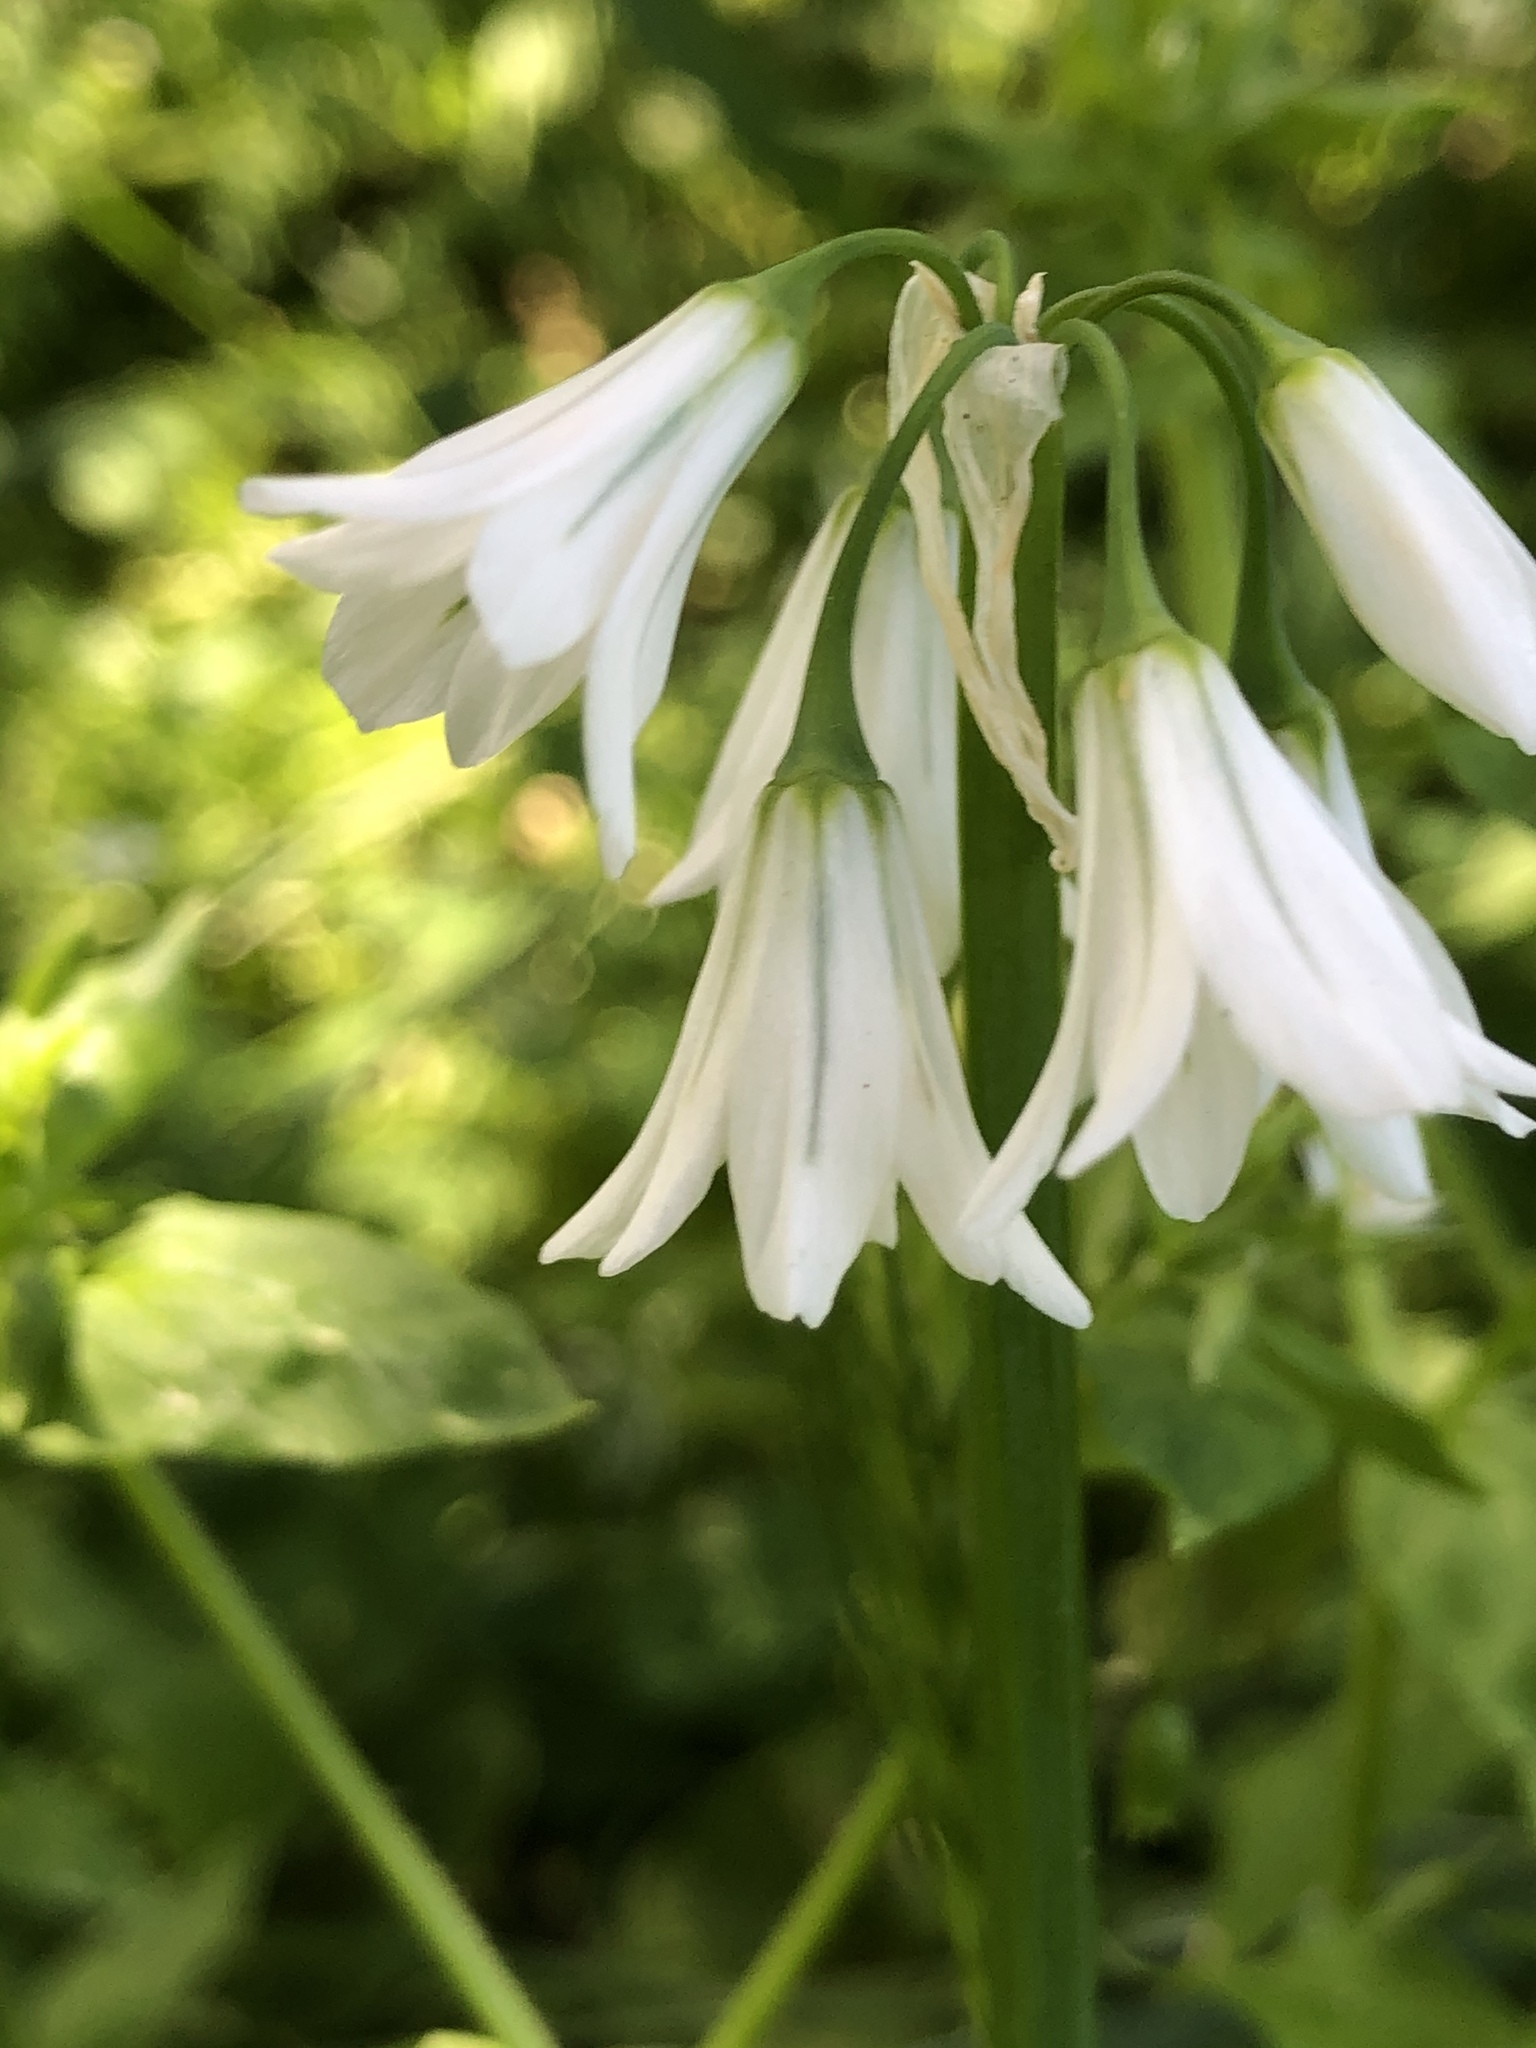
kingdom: Plantae
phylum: Tracheophyta
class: Liliopsida
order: Asparagales
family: Amaryllidaceae
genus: Allium
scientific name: Allium triquetrum
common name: Three-cornered garlic
